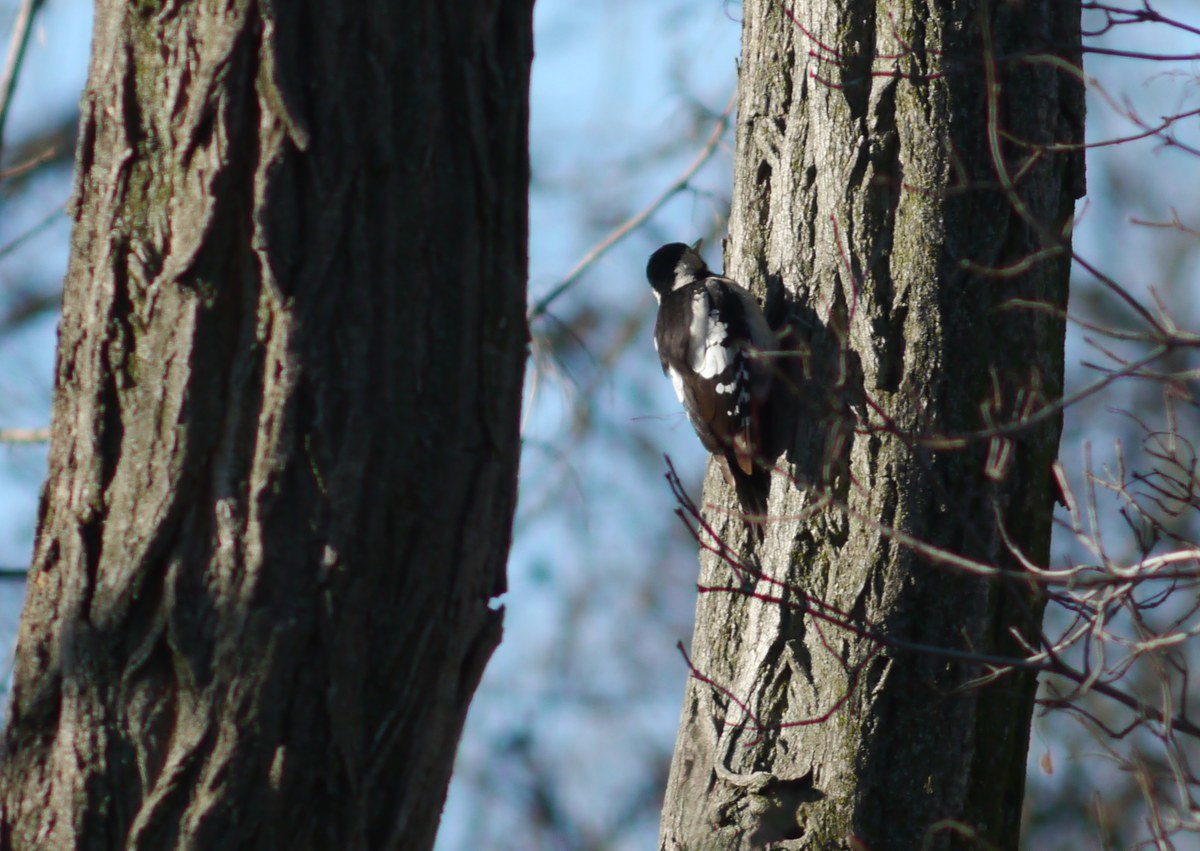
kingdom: Animalia
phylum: Chordata
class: Aves
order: Piciformes
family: Picidae
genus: Dendrocopos
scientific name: Dendrocopos major
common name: Great spotted woodpecker
